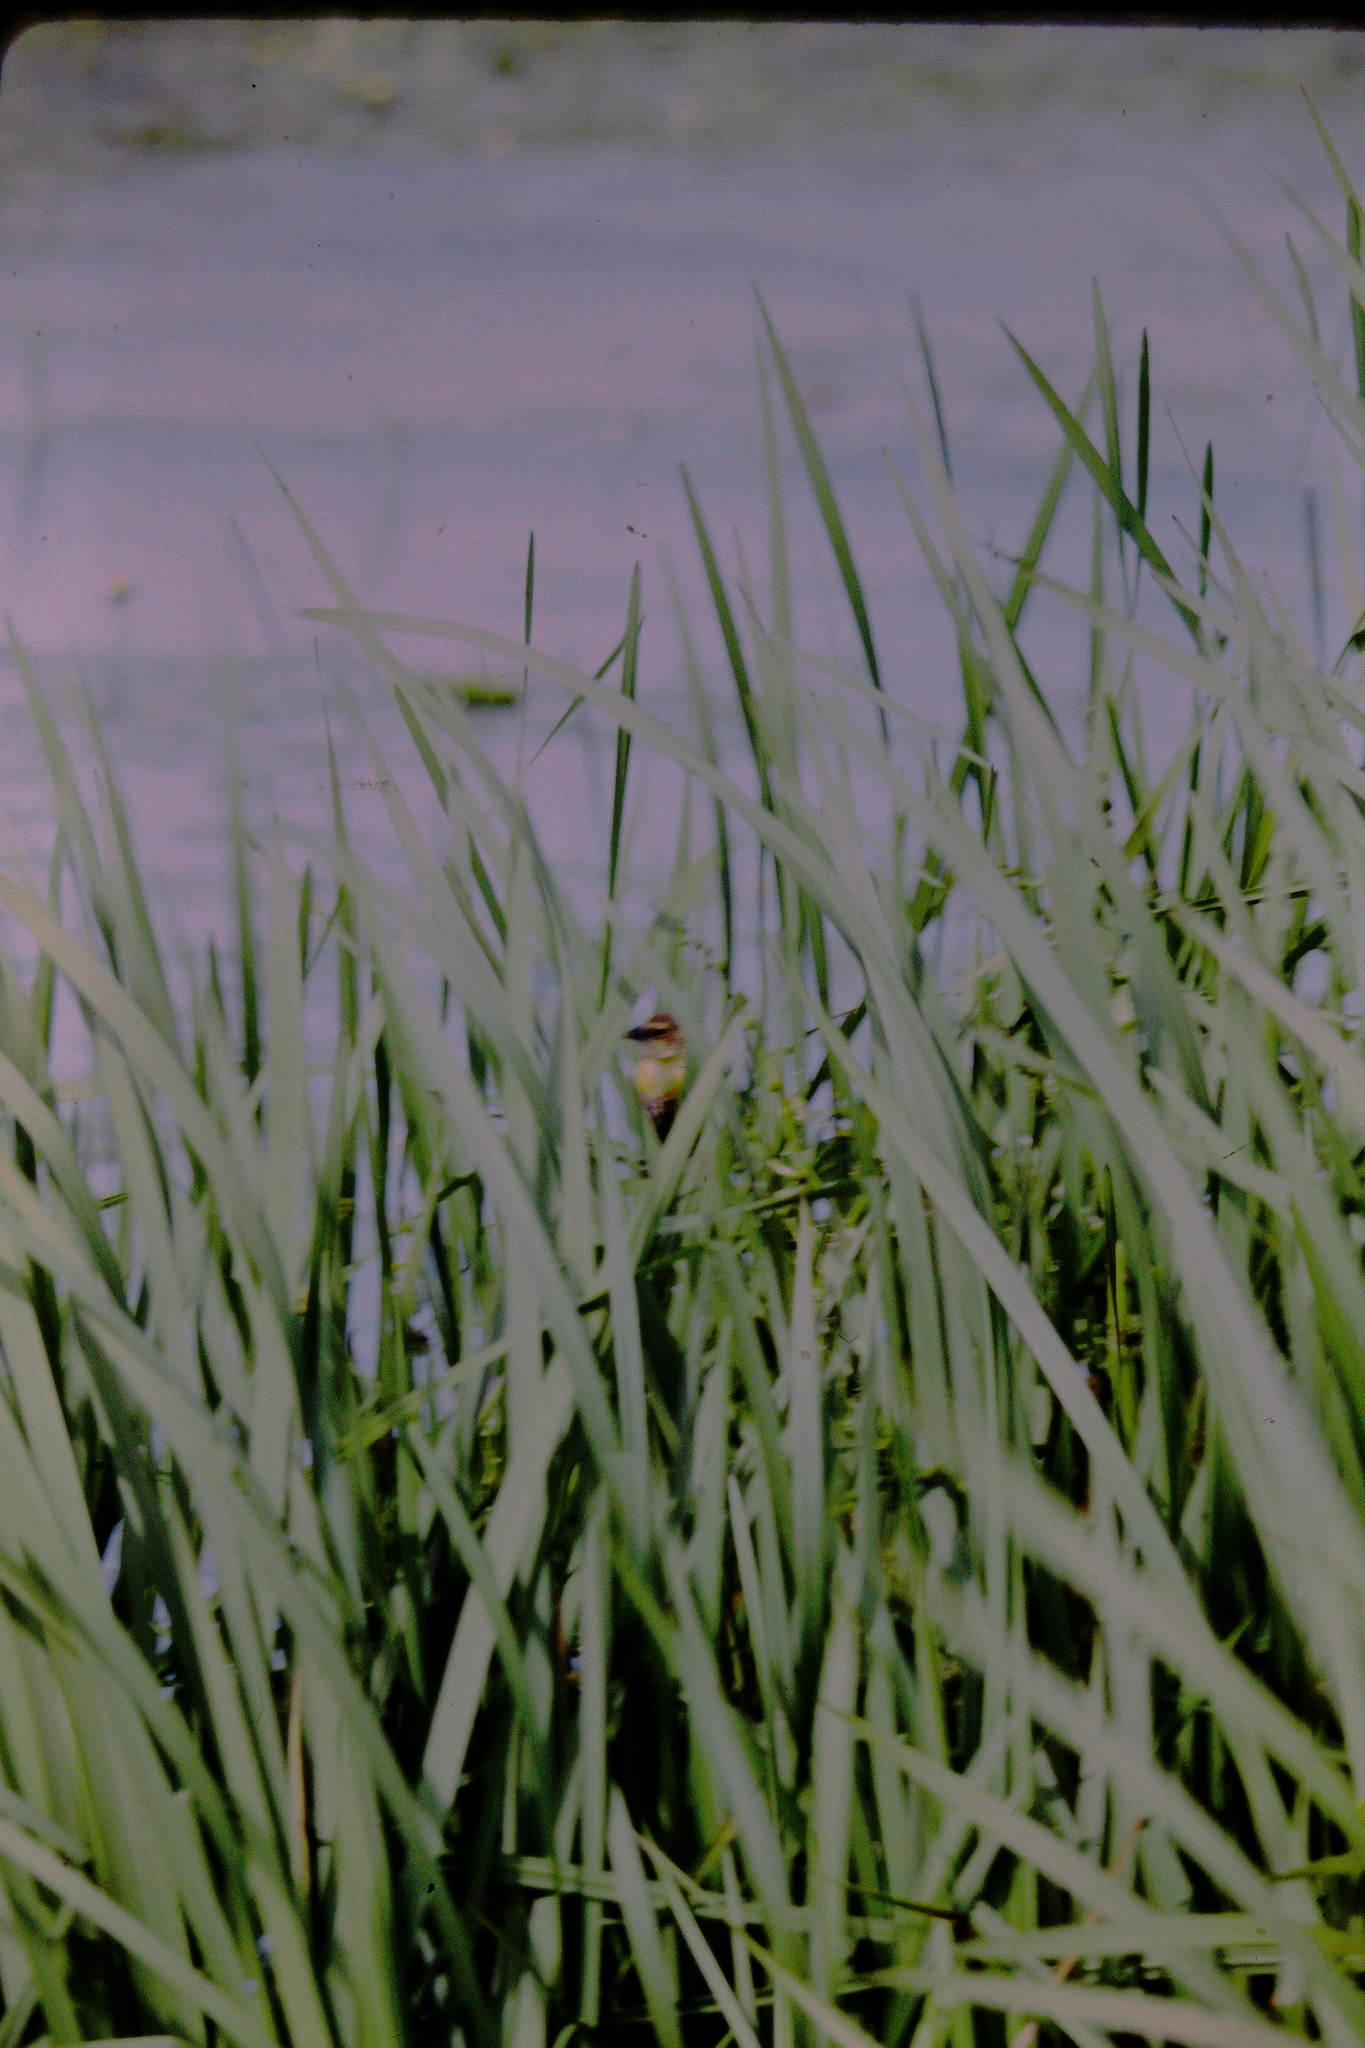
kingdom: Animalia
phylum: Chordata
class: Aves
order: Passeriformes
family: Icteridae
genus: Xanthocephalus
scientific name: Xanthocephalus xanthocephalus
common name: Yellow-headed blackbird
